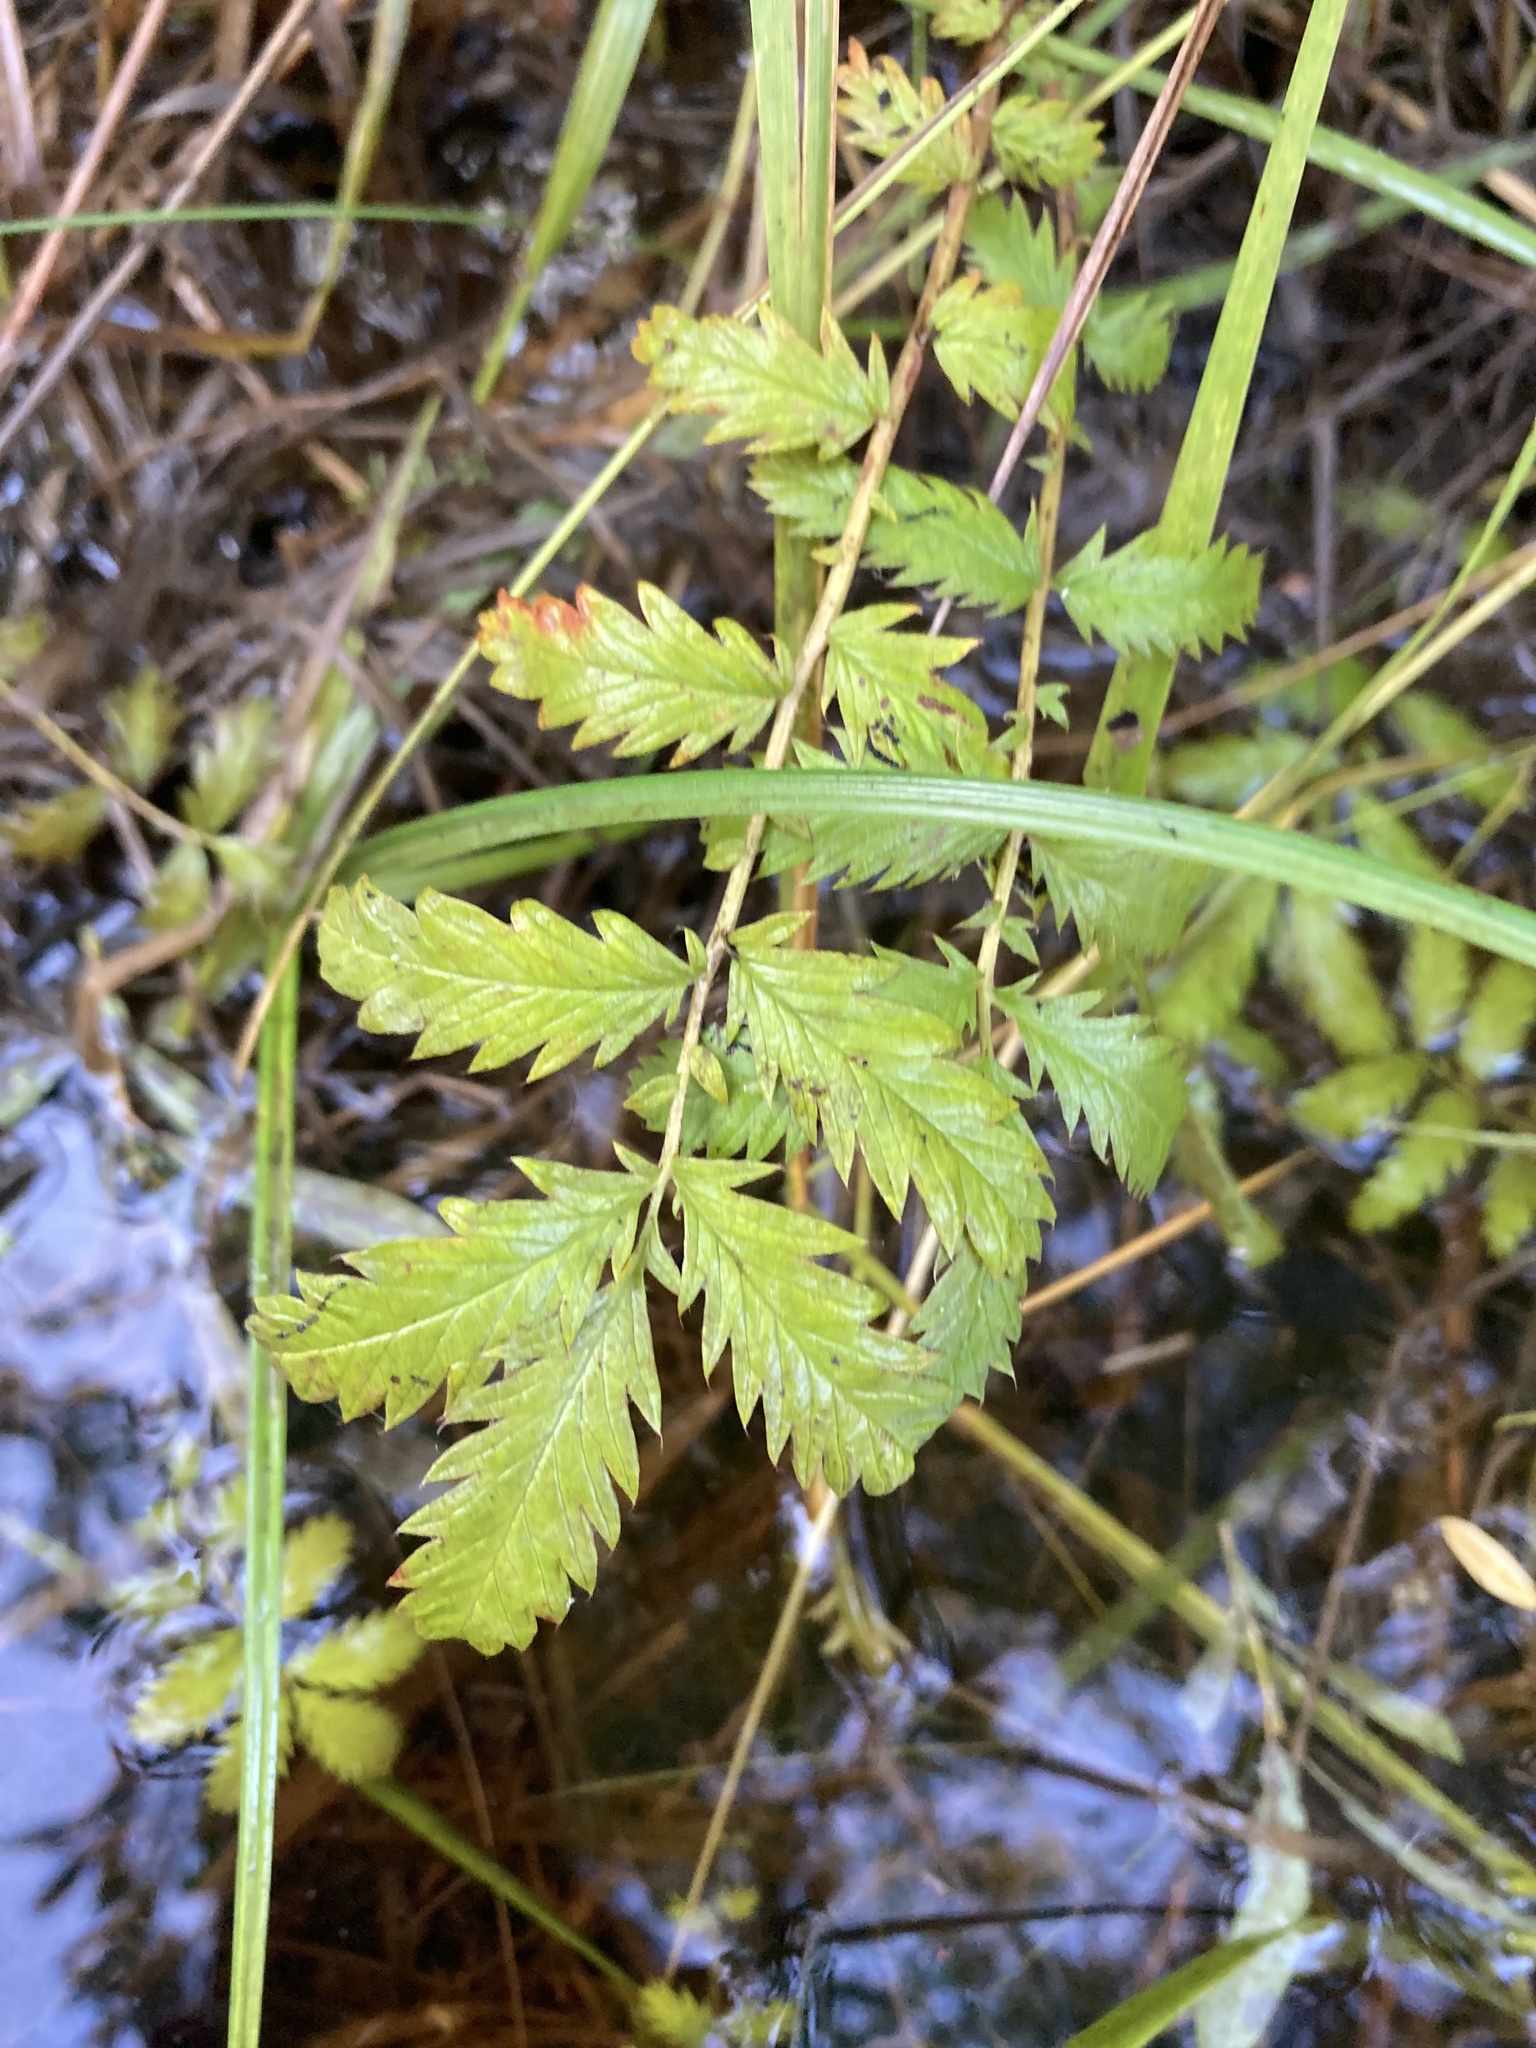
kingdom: Plantae
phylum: Tracheophyta
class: Magnoliopsida
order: Rosales
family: Rosaceae
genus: Argentina
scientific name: Argentina anserina
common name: Common silverweed
